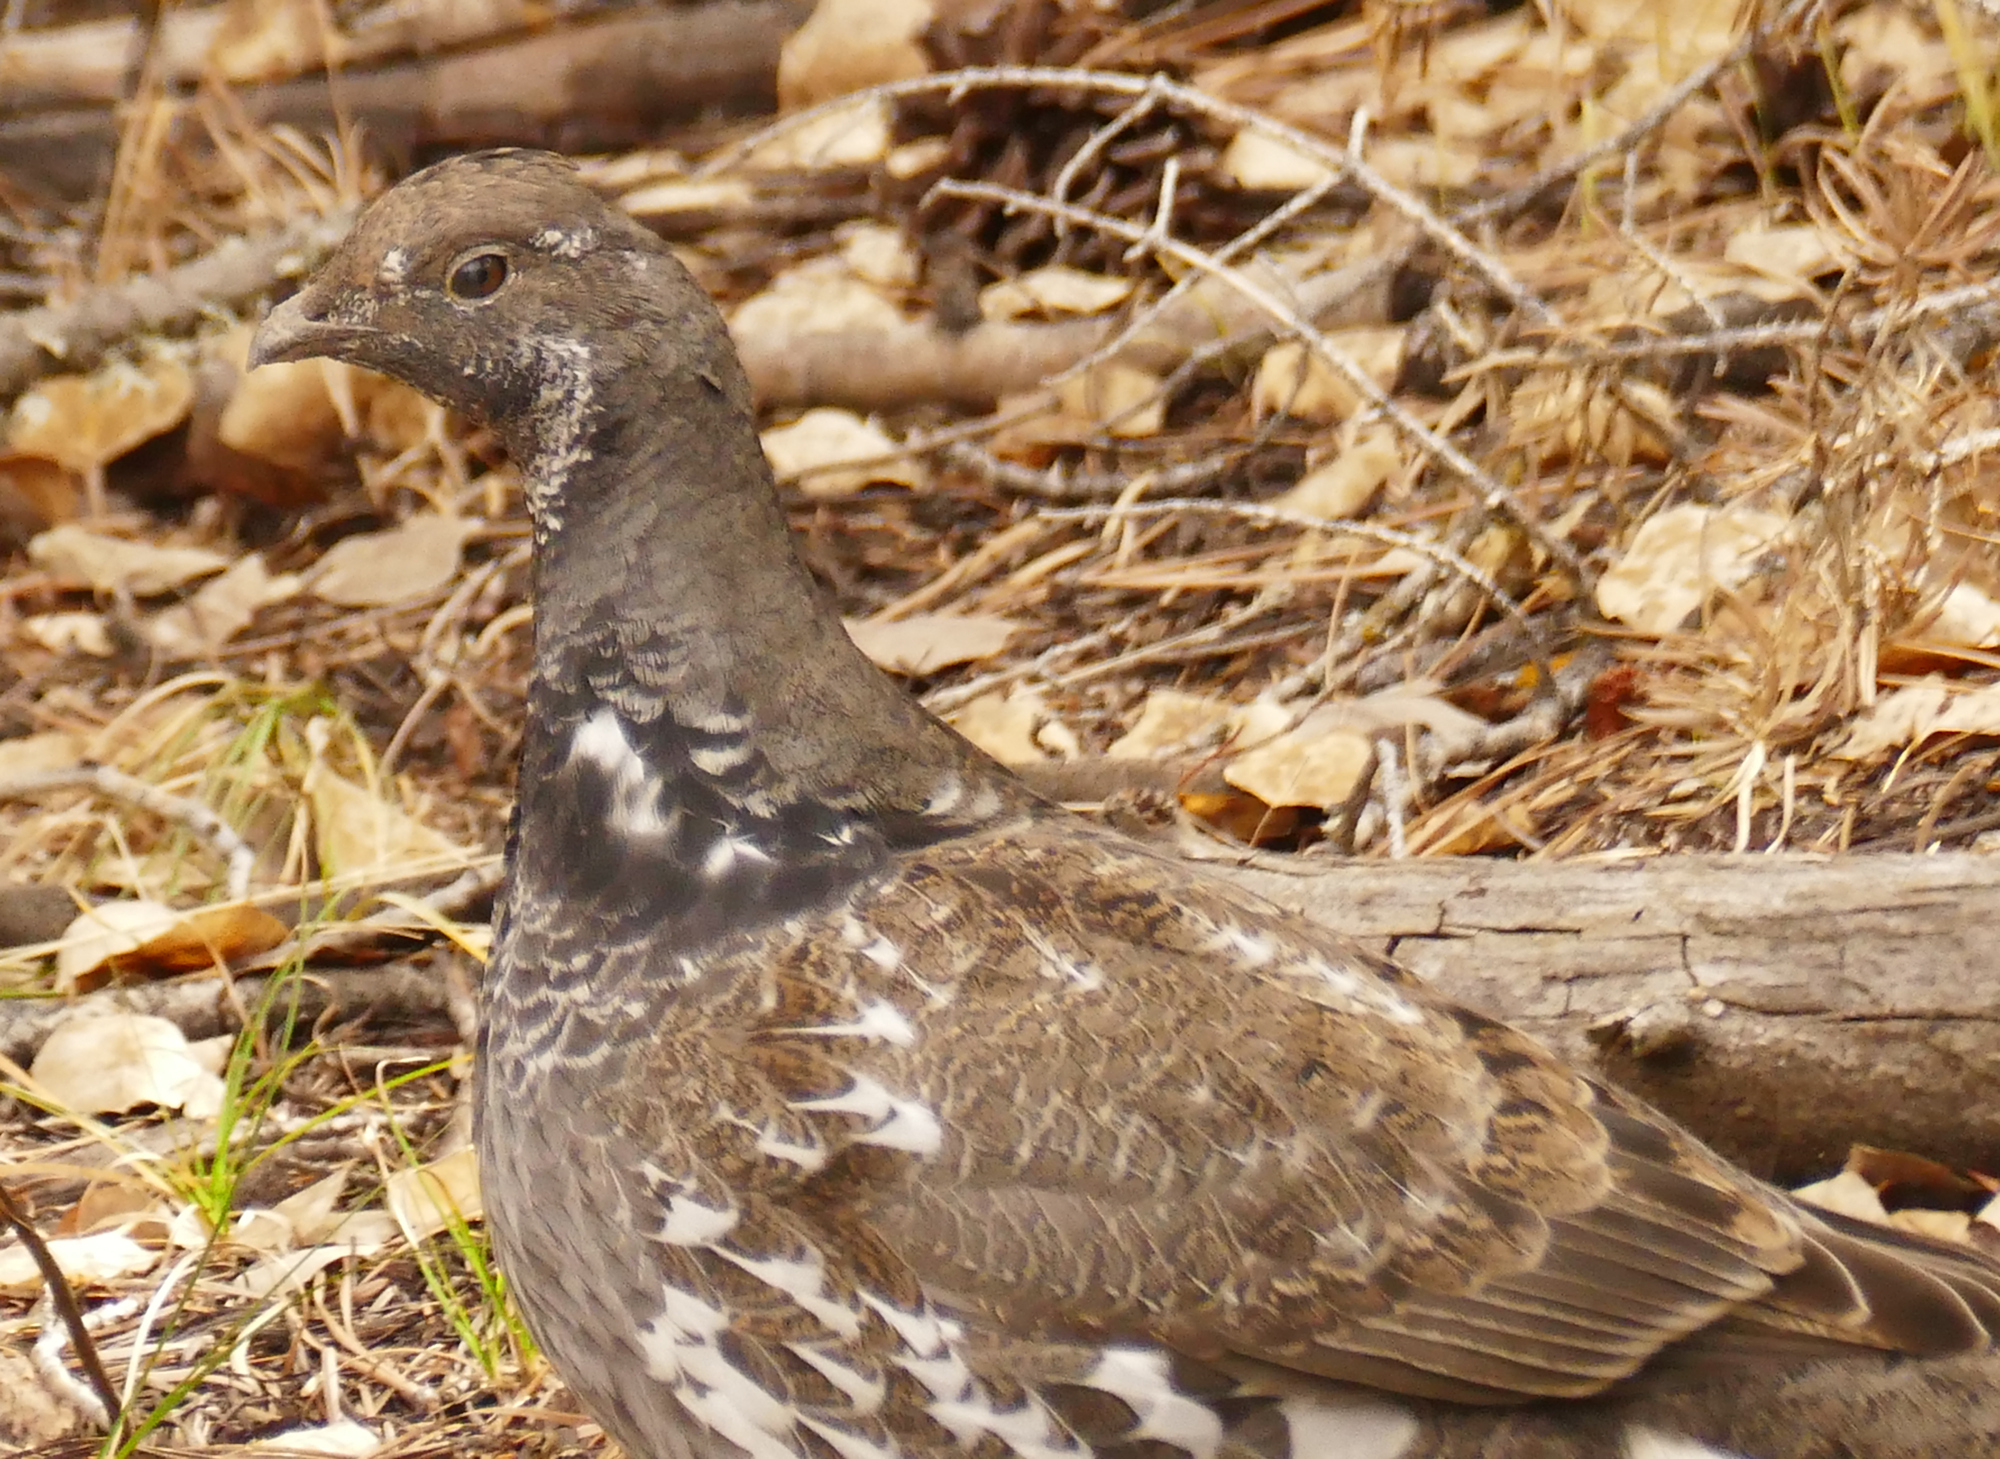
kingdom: Animalia
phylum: Chordata
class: Aves
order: Galliformes
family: Phasianidae
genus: Dendragapus
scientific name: Dendragapus obscurus
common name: Dusky grouse
